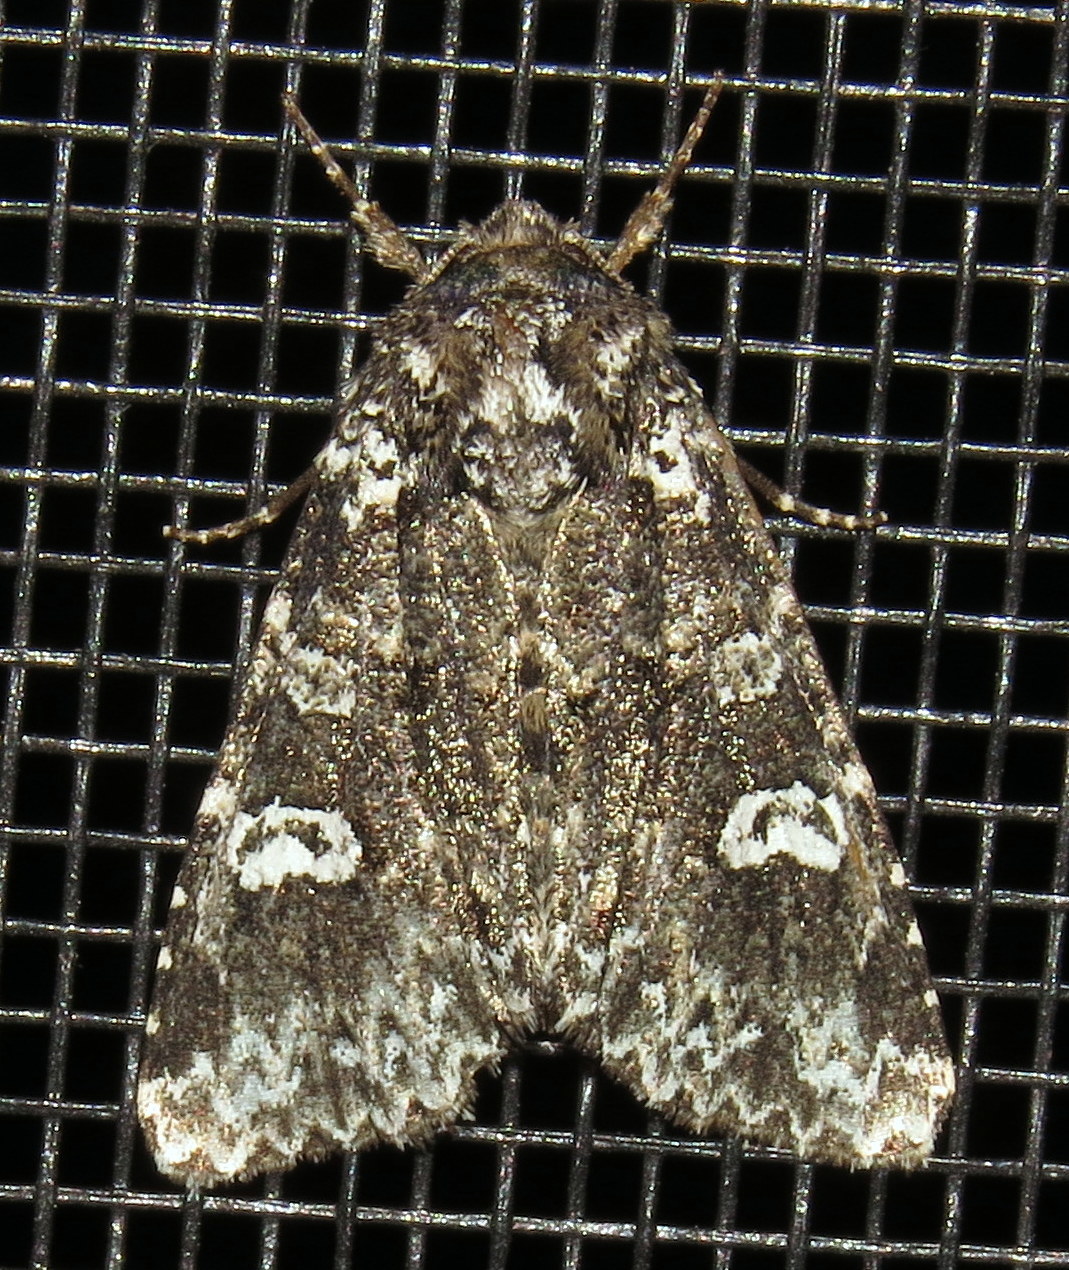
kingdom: Animalia
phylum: Arthropoda
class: Insecta
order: Lepidoptera
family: Noctuidae
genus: Melanchra
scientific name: Melanchra adjuncta
